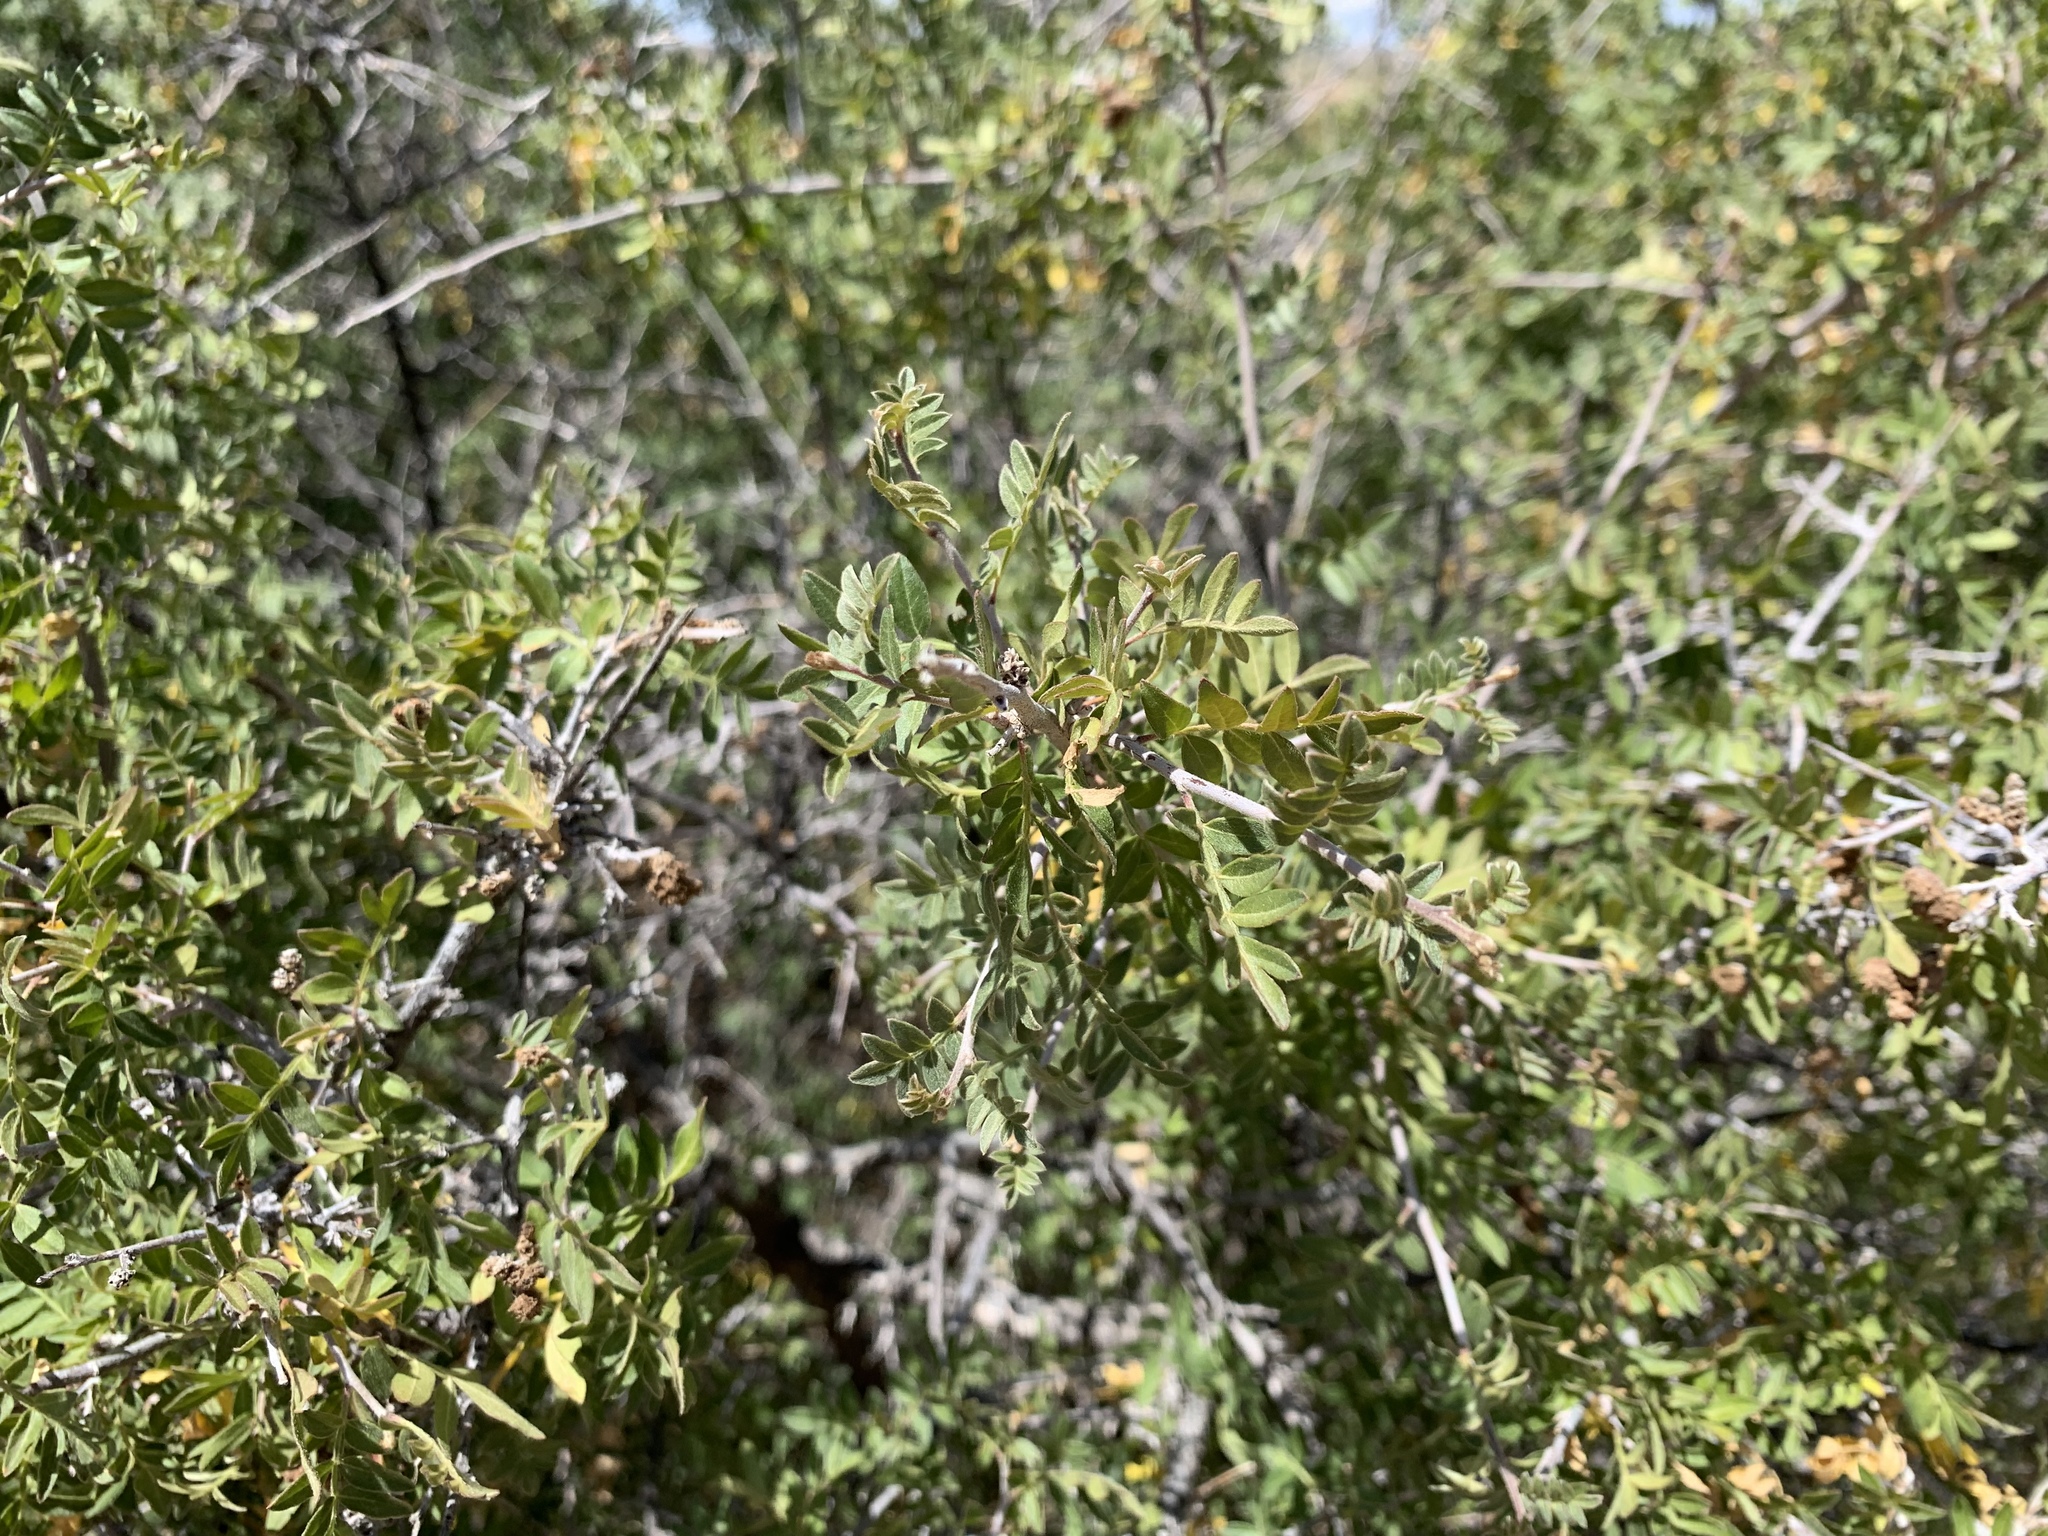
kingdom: Plantae
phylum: Tracheophyta
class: Magnoliopsida
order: Sapindales
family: Anacardiaceae
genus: Rhus
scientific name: Rhus microphylla
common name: Desert sumac
